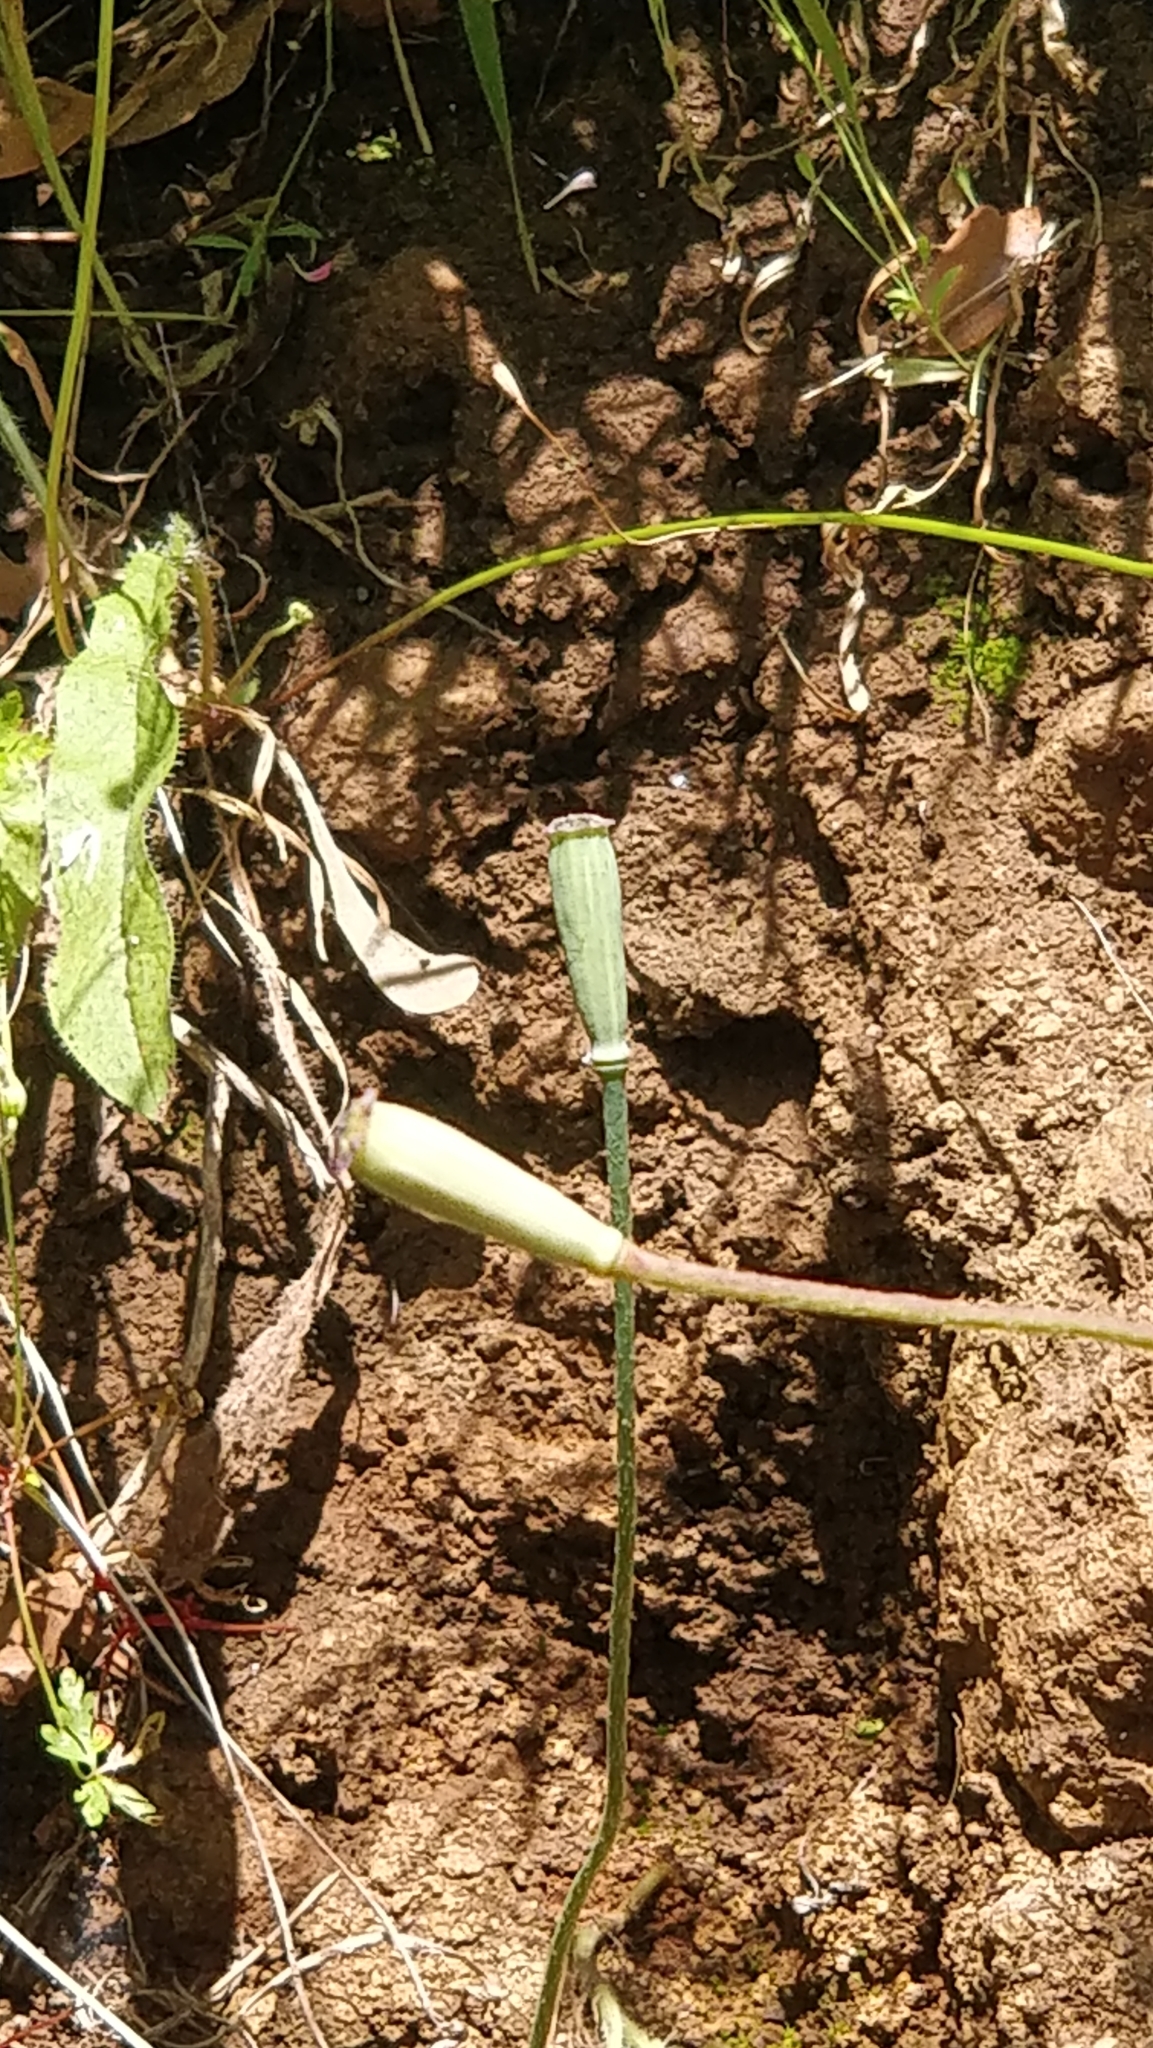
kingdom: Plantae
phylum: Tracheophyta
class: Magnoliopsida
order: Ranunculales
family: Papaveraceae
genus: Papaver
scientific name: Papaver rhoeas
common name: Corn poppy
